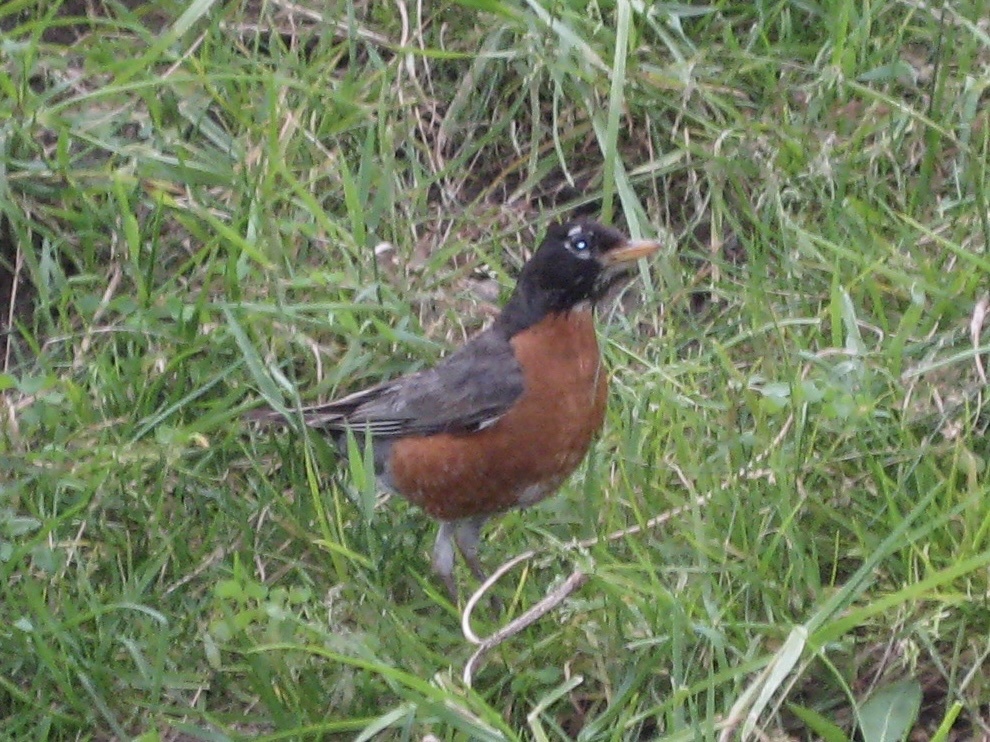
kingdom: Animalia
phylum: Chordata
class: Aves
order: Passeriformes
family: Turdidae
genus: Turdus
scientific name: Turdus migratorius
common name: American robin
